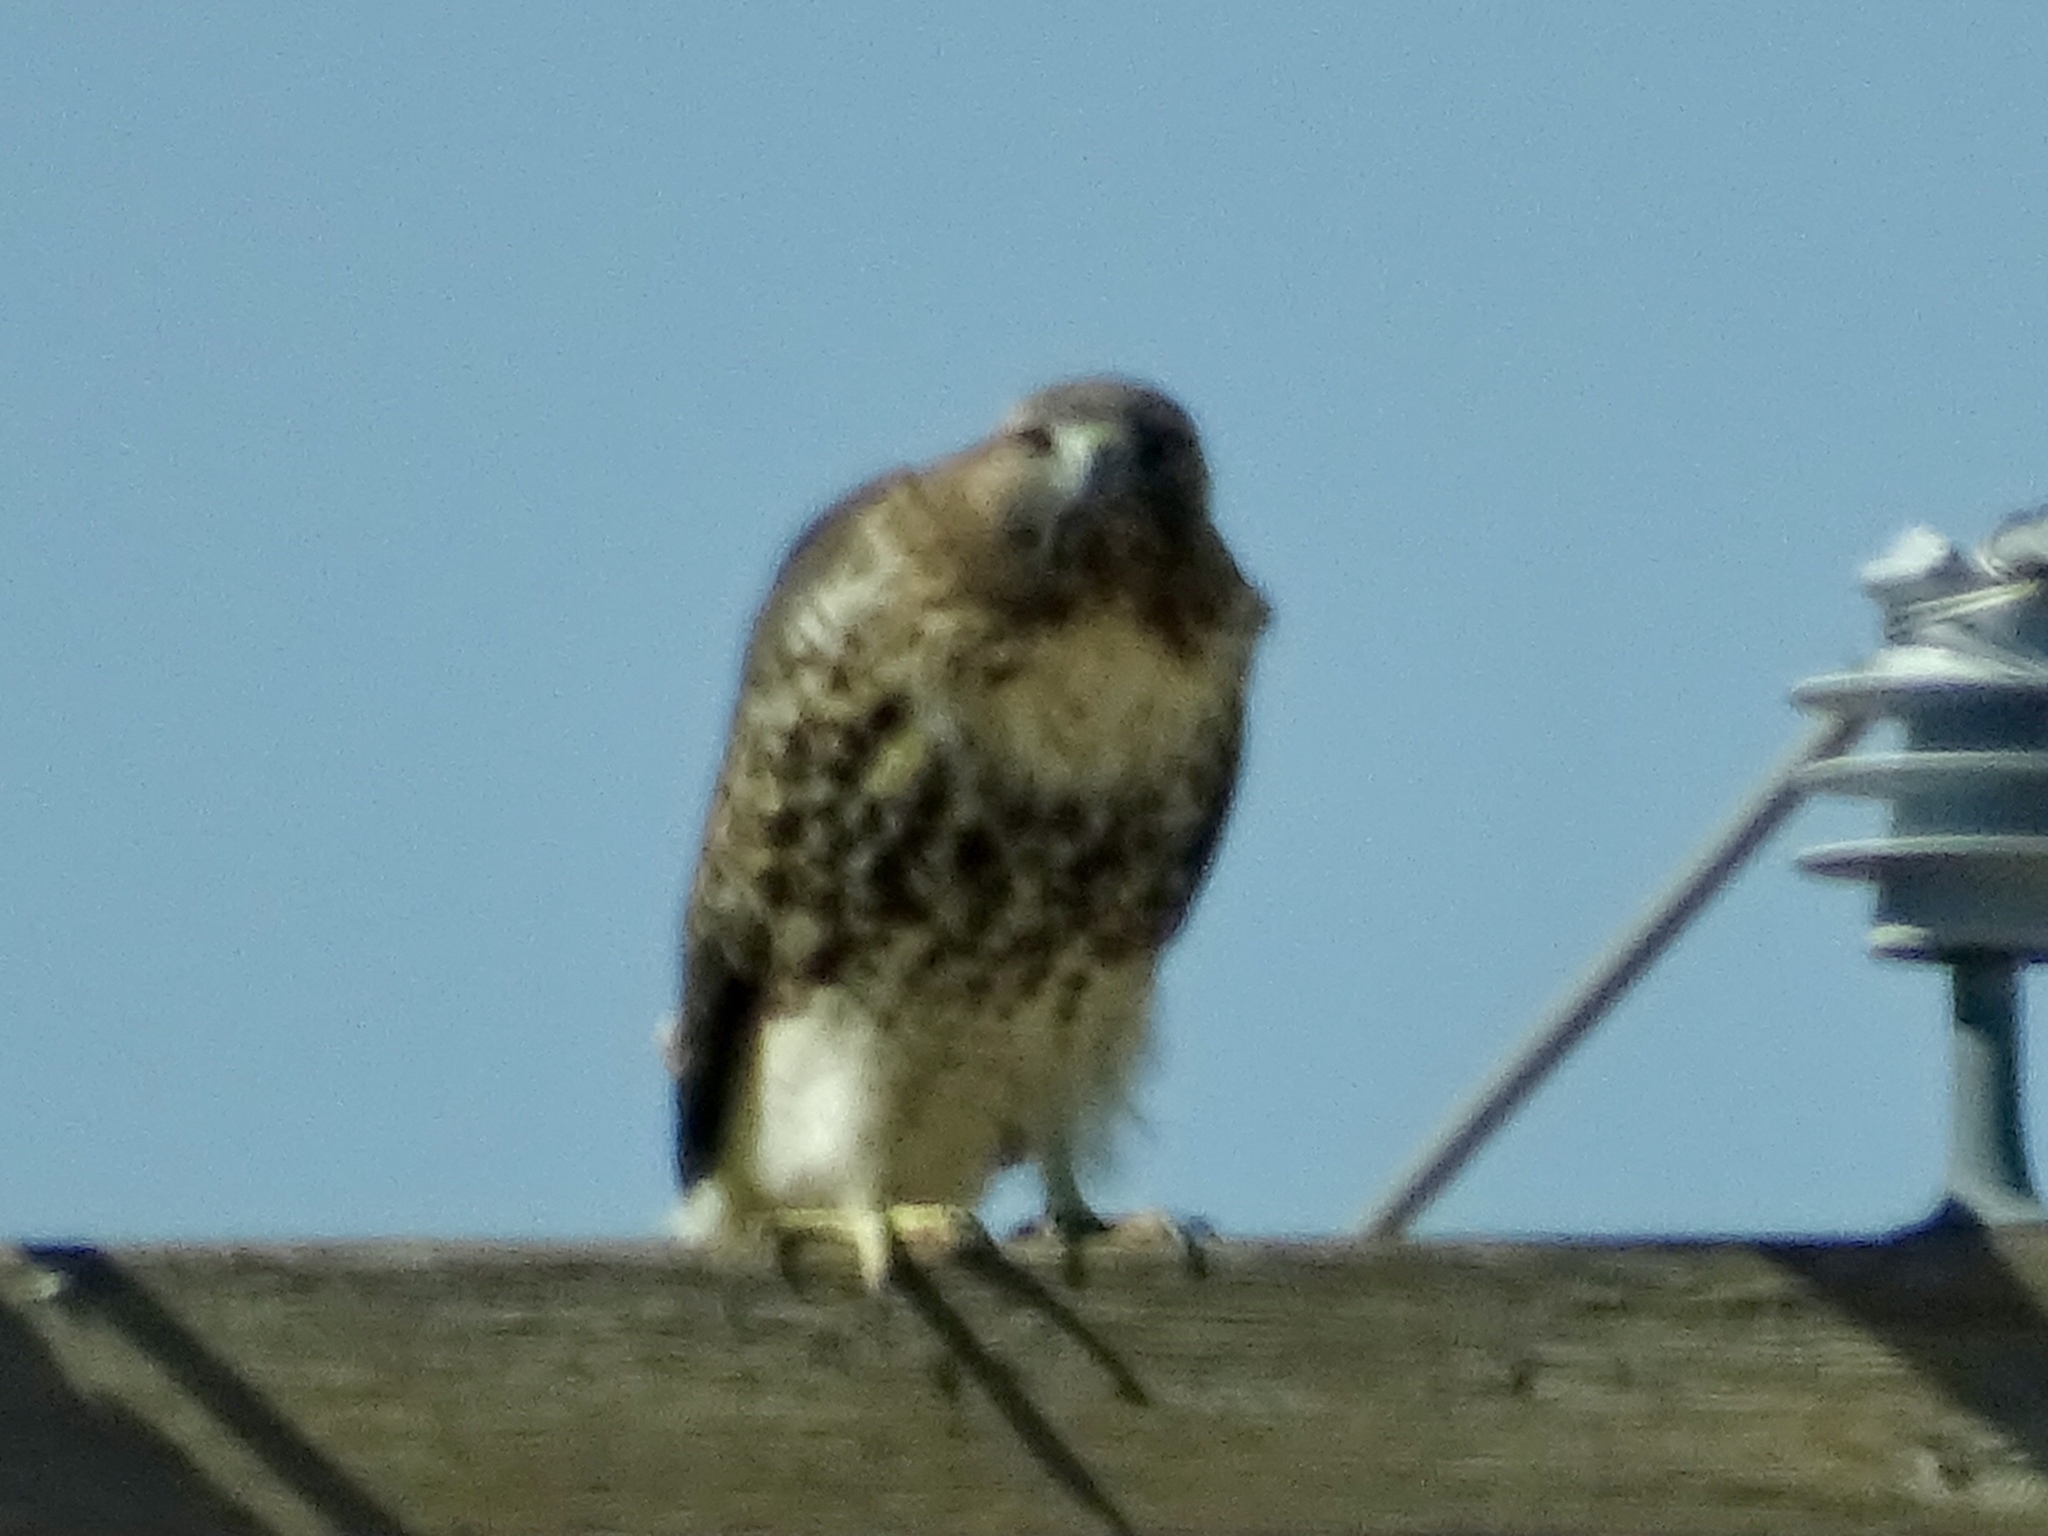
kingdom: Animalia
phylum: Chordata
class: Aves
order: Accipitriformes
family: Accipitridae
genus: Buteo
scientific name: Buteo jamaicensis
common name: Red-tailed hawk
